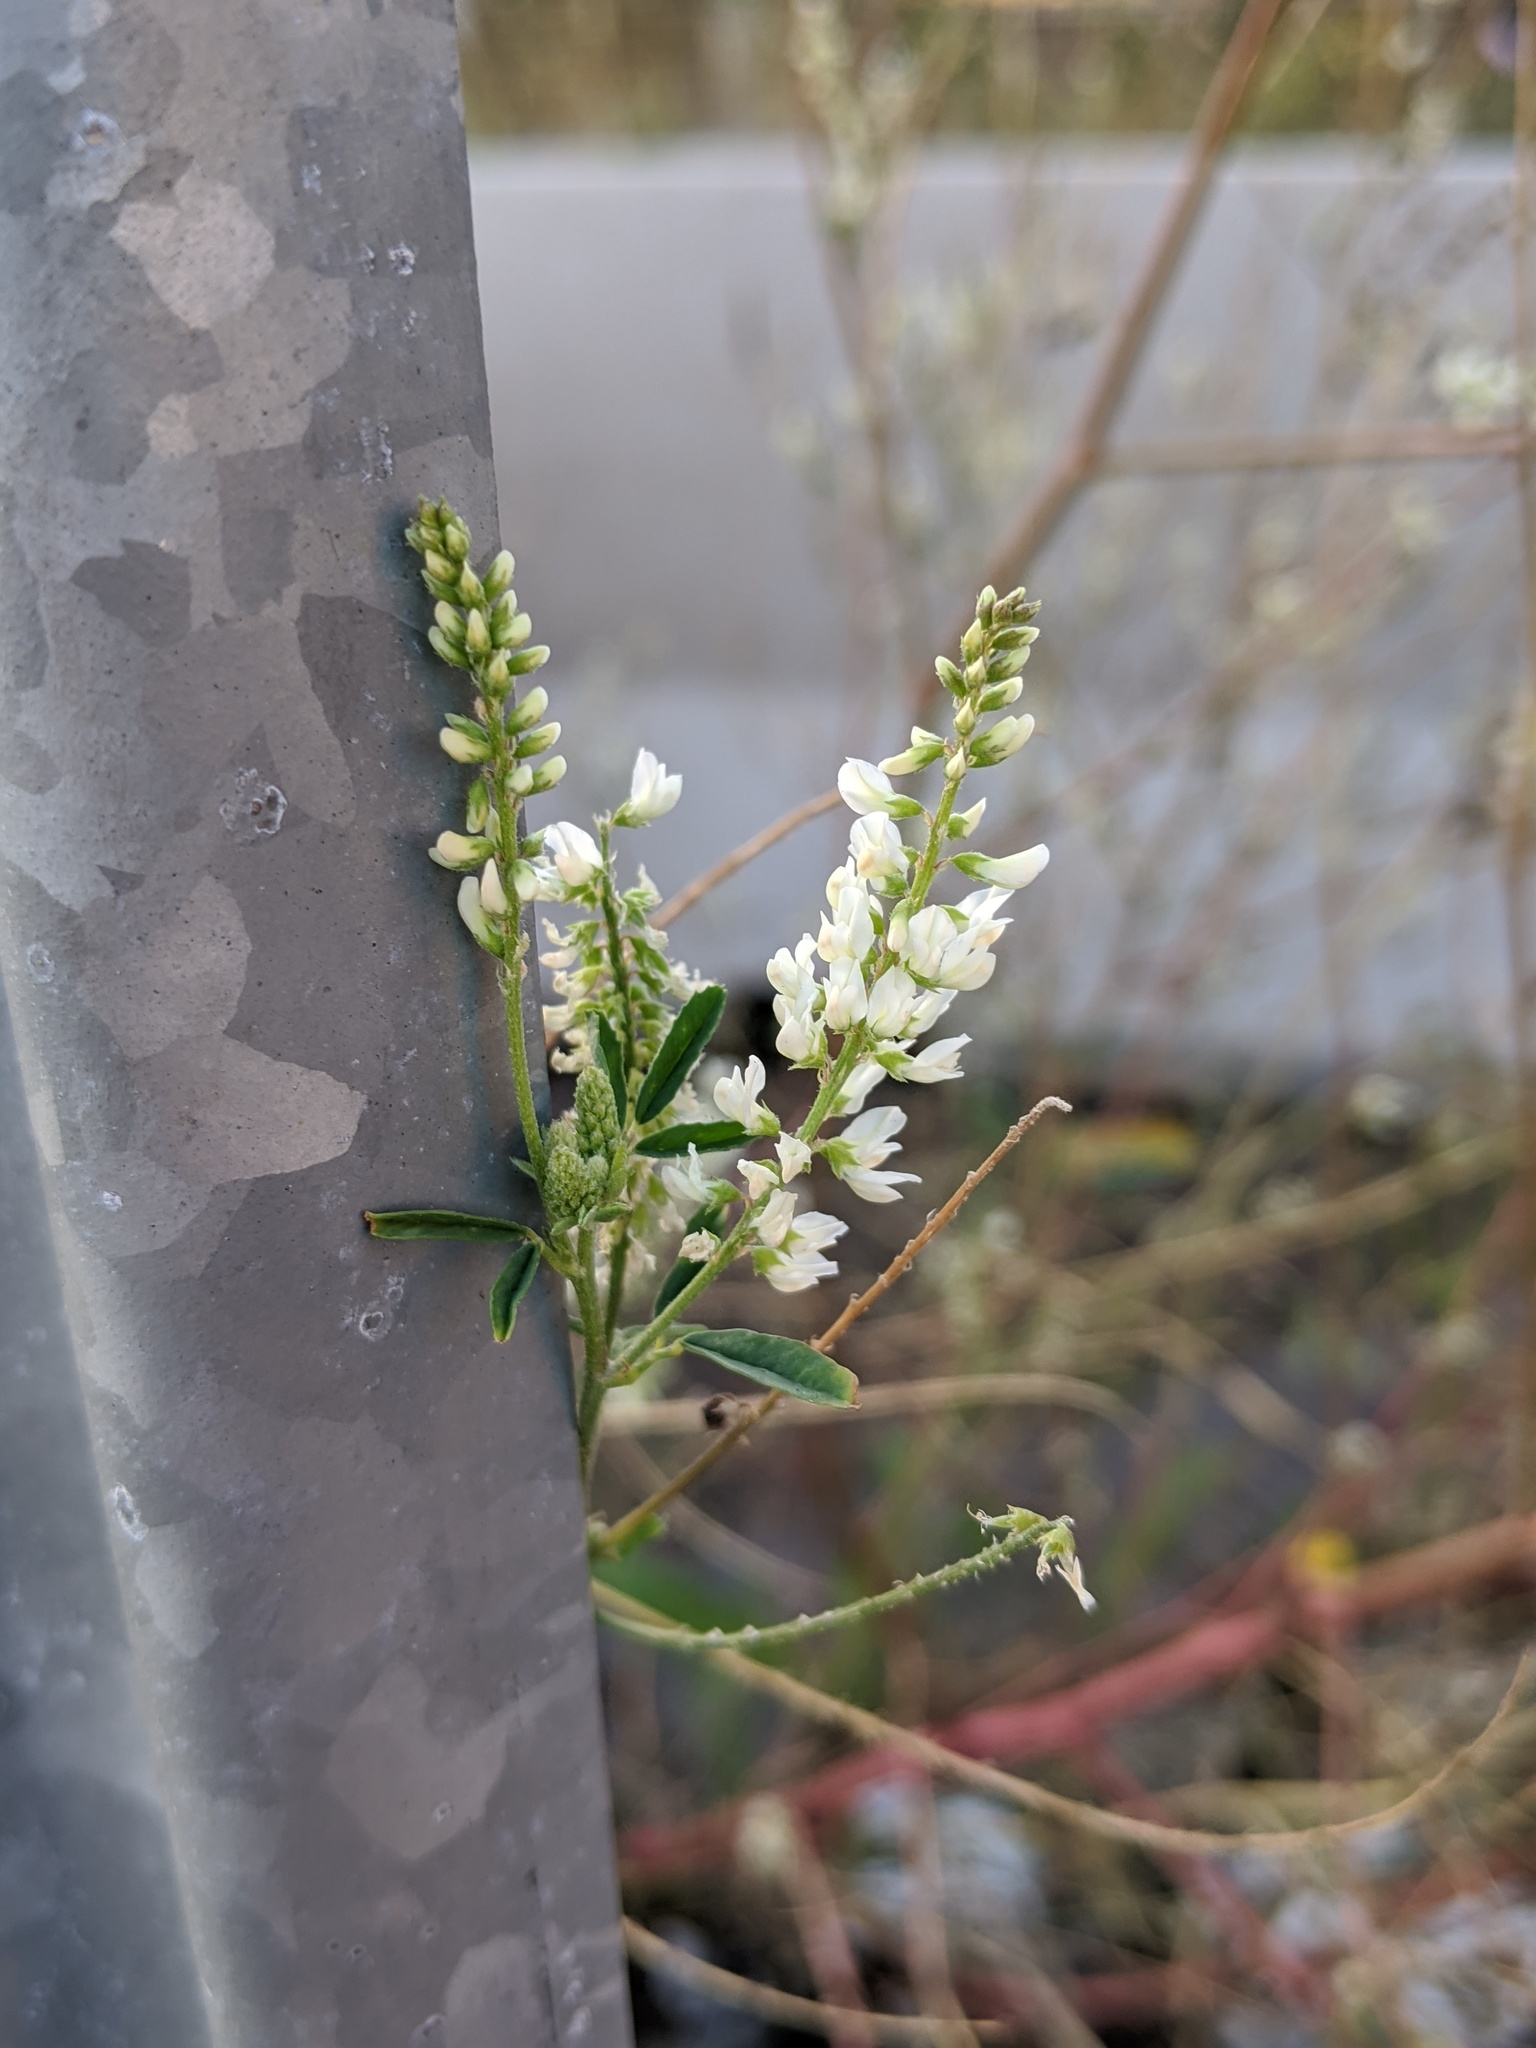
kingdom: Plantae
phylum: Tracheophyta
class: Magnoliopsida
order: Fabales
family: Fabaceae
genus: Melilotus
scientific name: Melilotus albus
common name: White melilot
